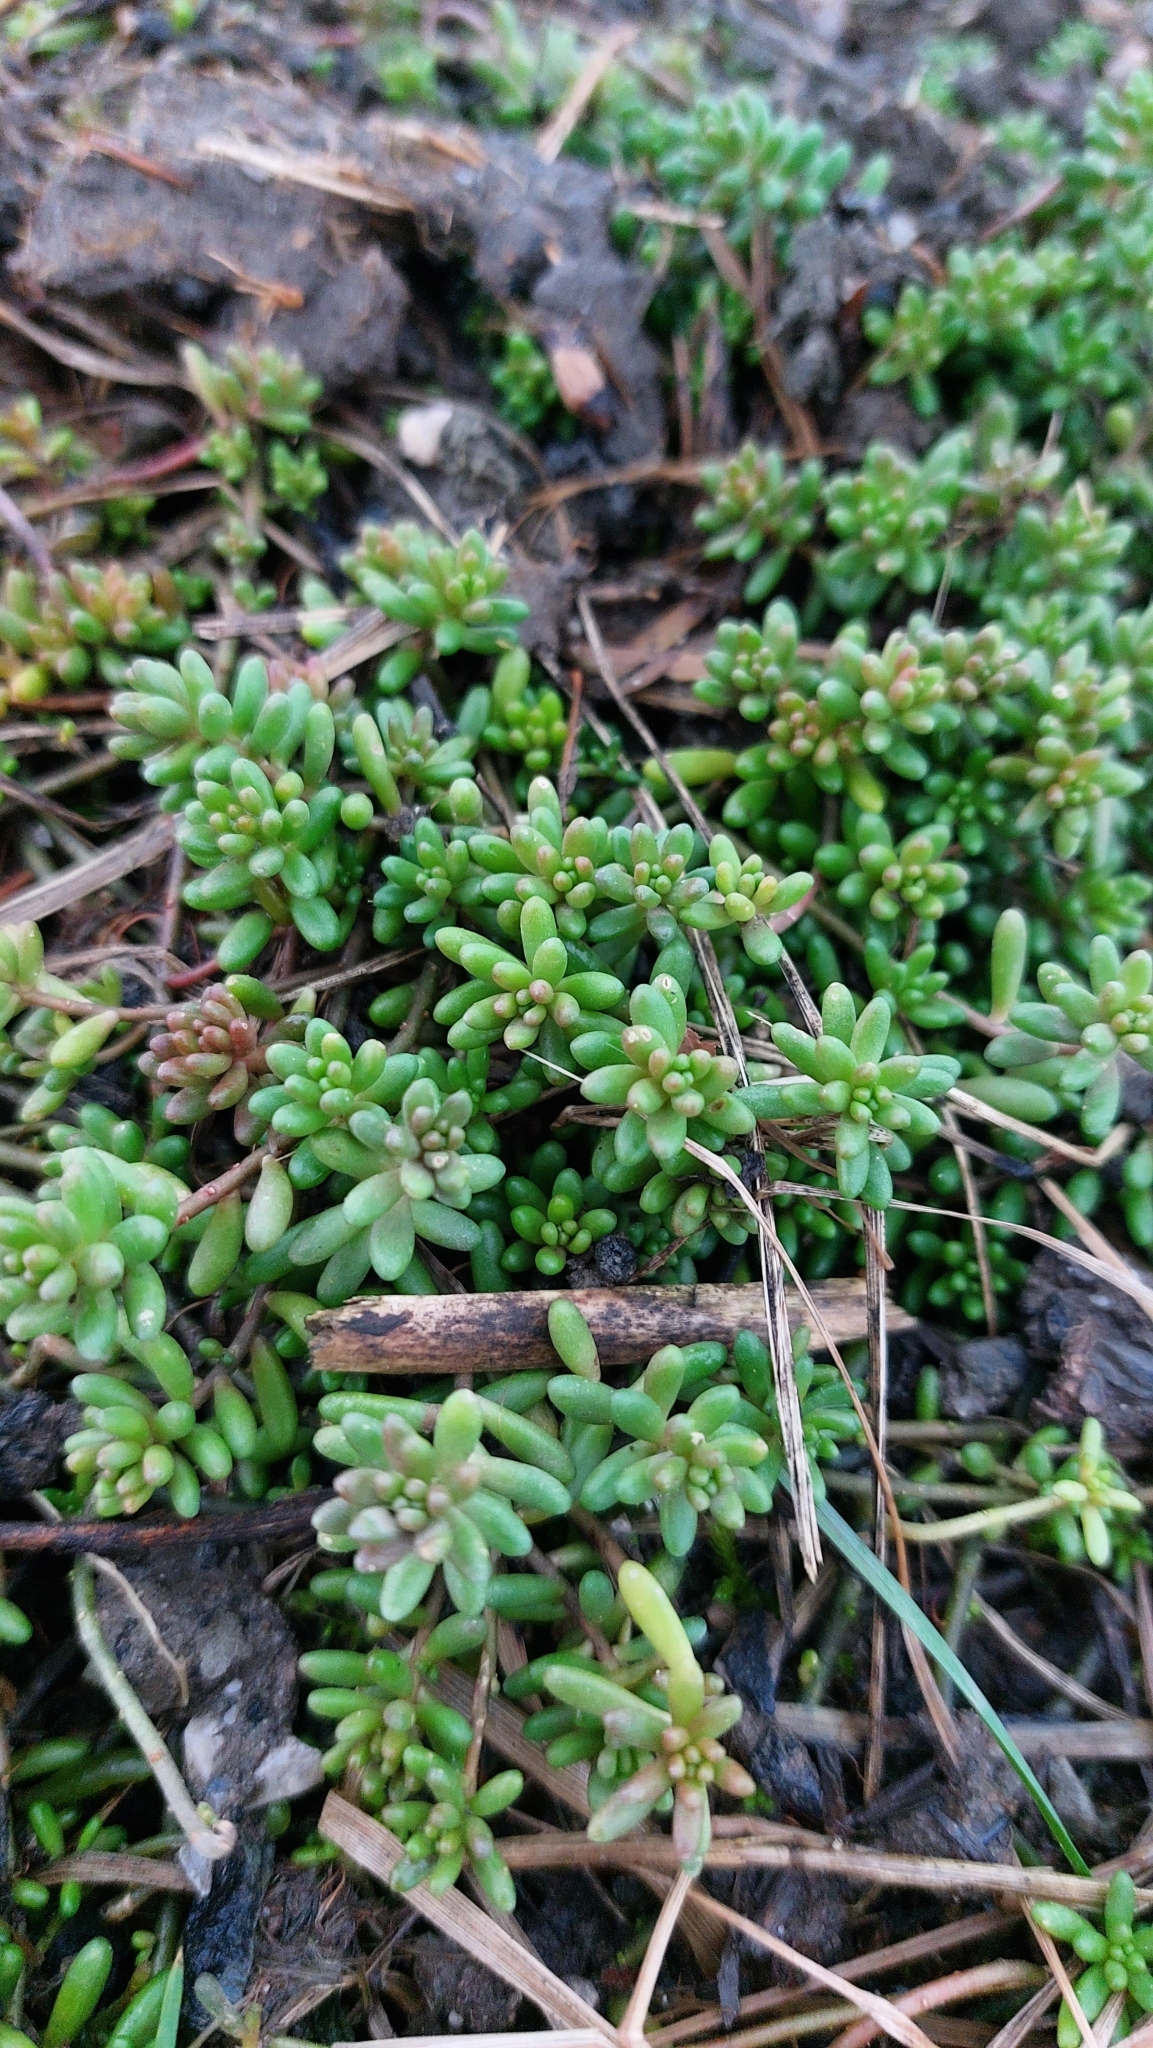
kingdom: Plantae
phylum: Tracheophyta
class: Magnoliopsida
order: Saxifragales
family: Crassulaceae
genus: Sedum
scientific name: Sedum album
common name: White stonecrop
